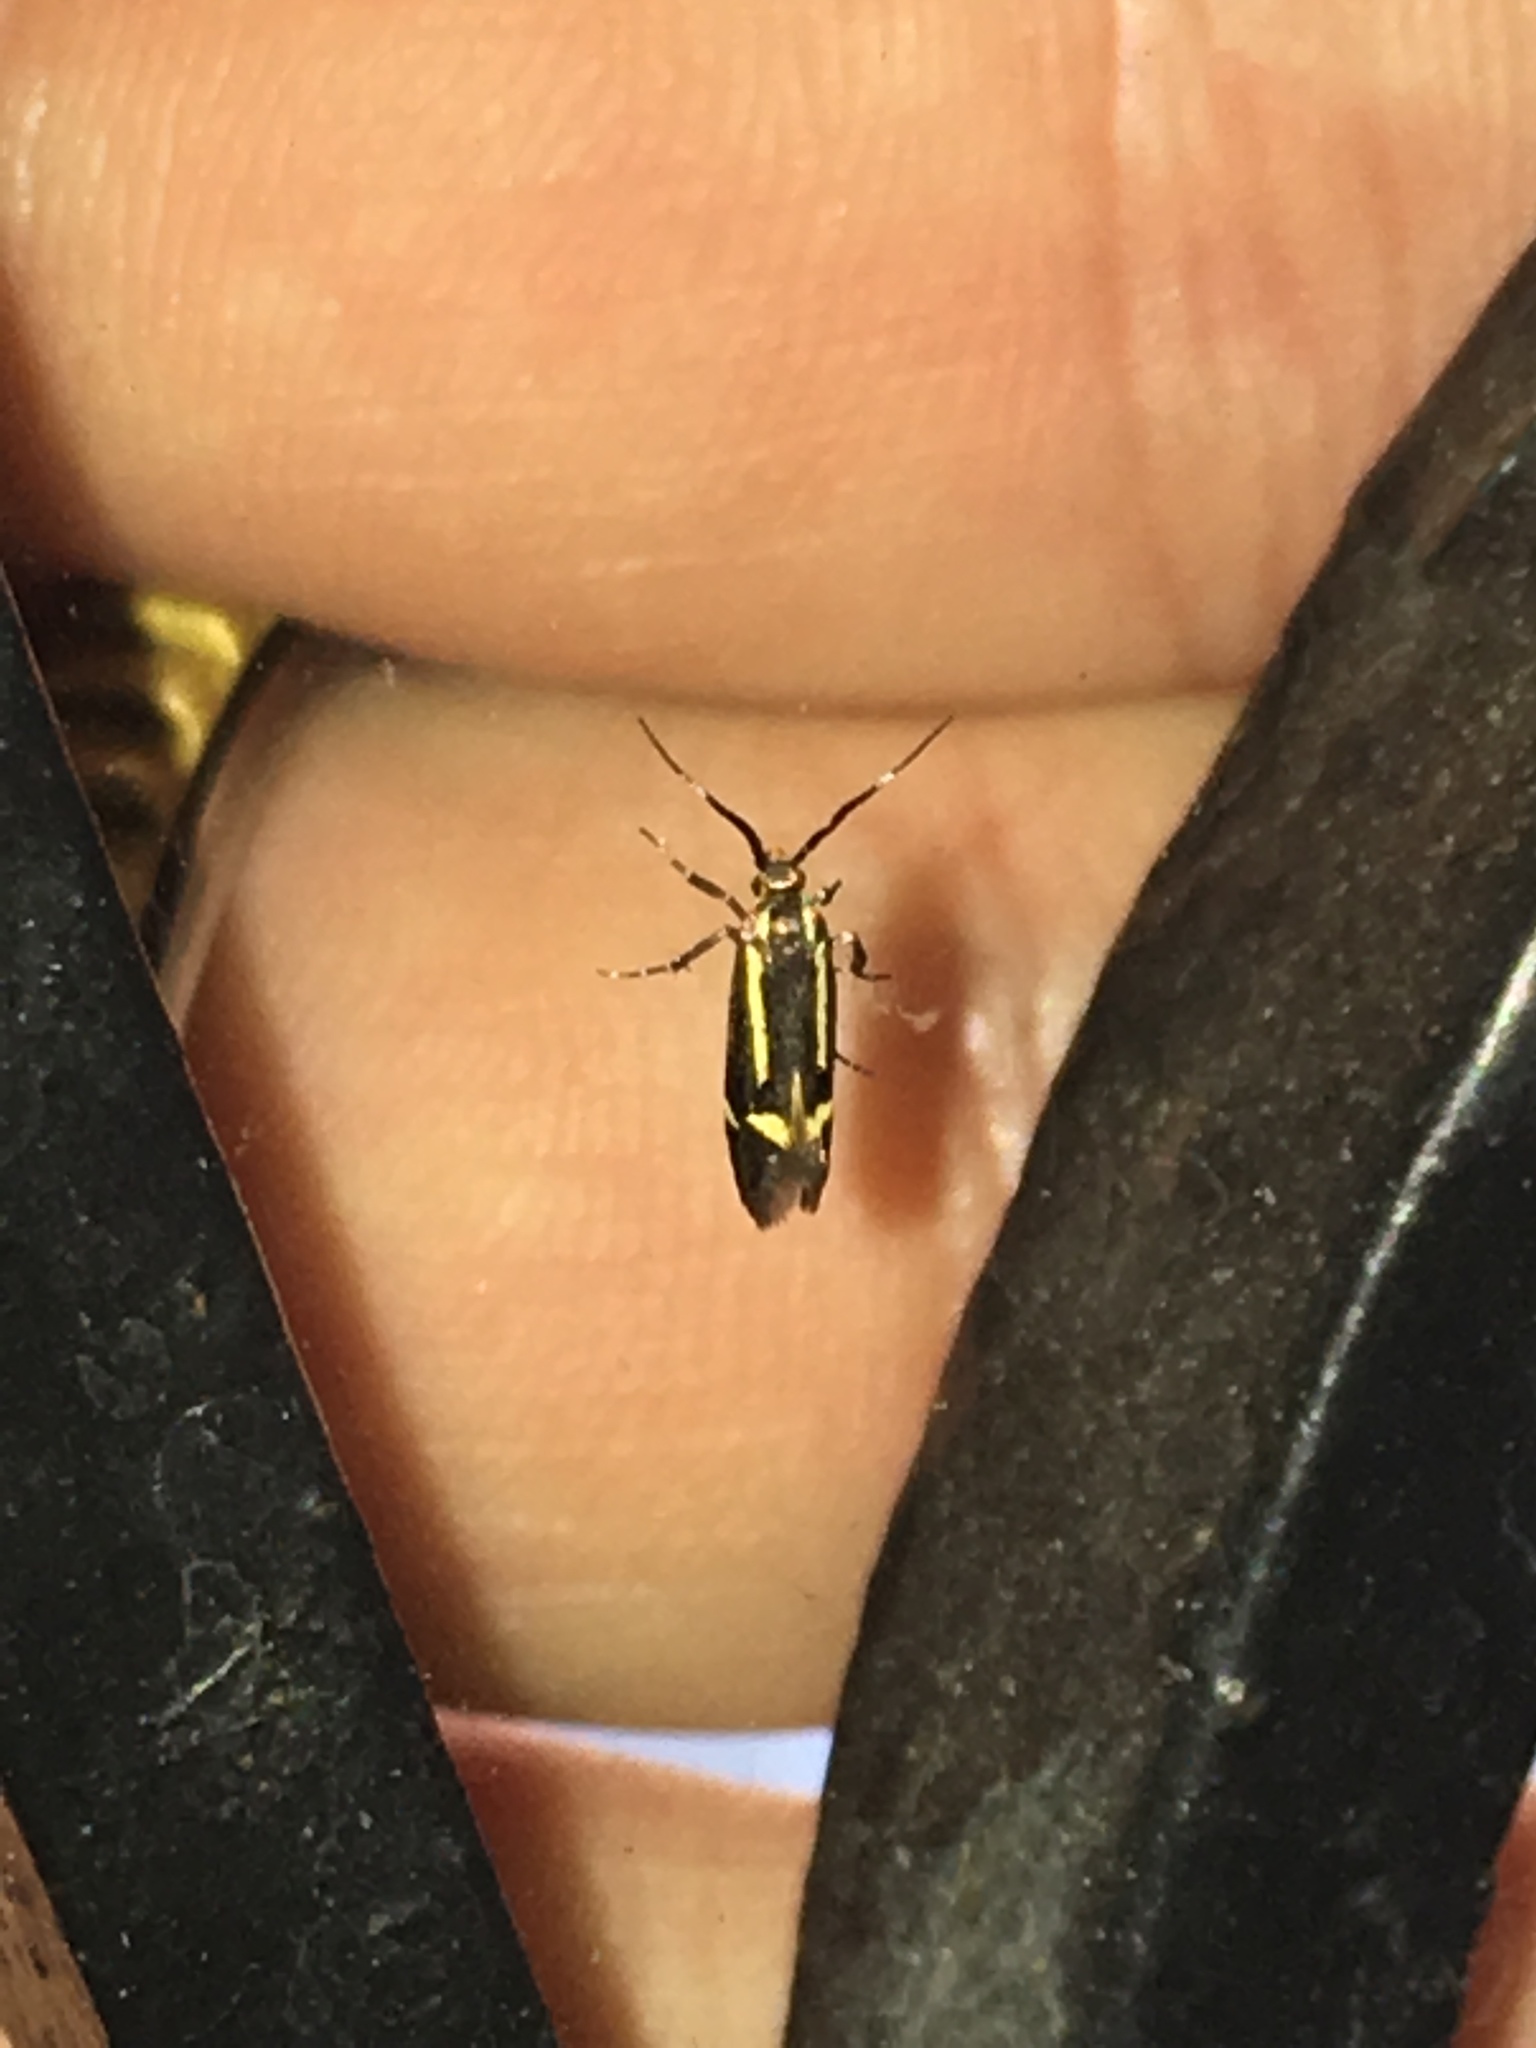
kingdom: Animalia
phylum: Arthropoda
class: Insecta
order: Lepidoptera
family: Oecophoridae
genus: Dafa
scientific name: Dafa Esperia sulphurella
